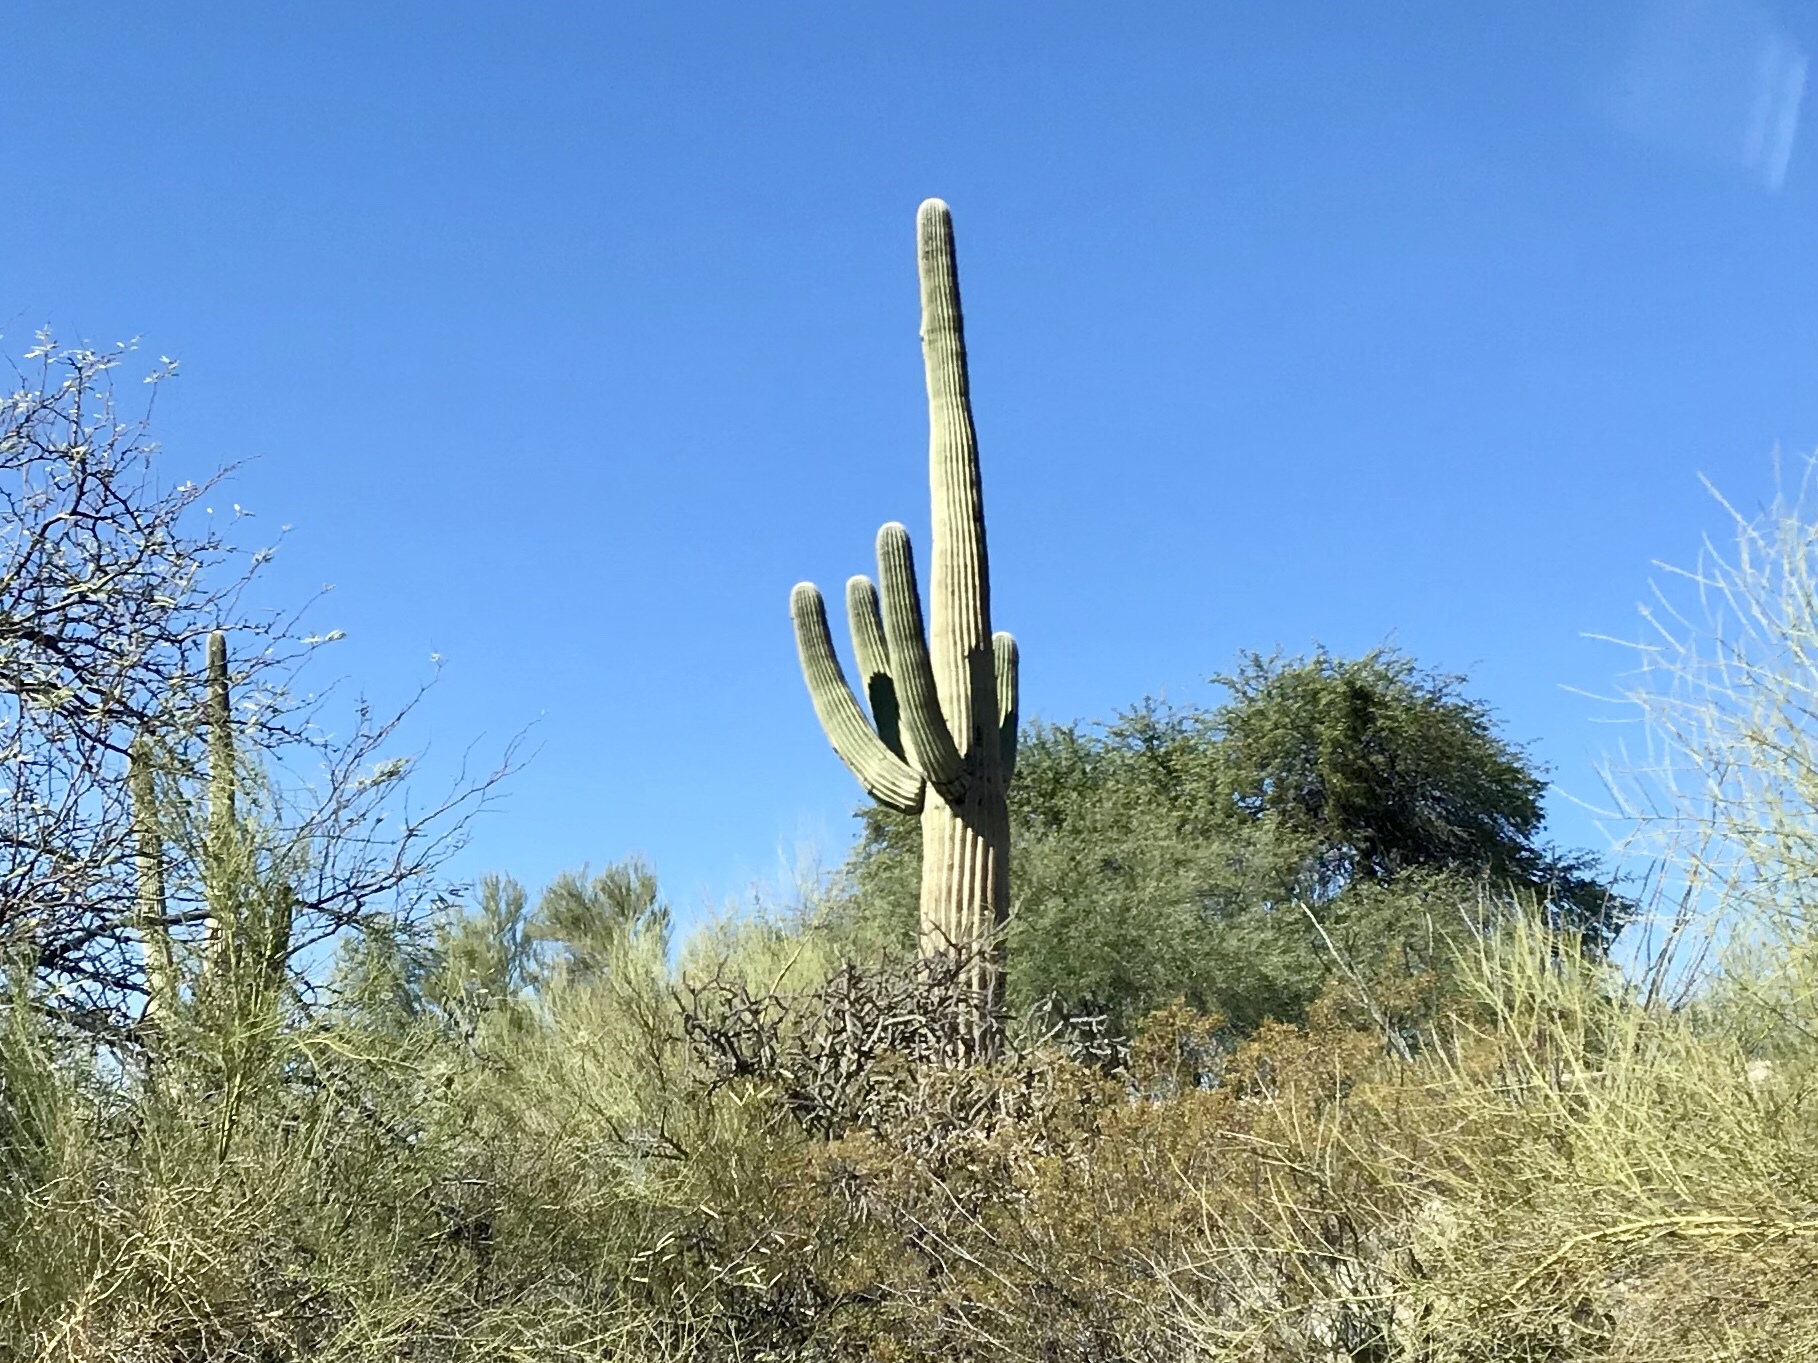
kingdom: Plantae
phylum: Tracheophyta
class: Magnoliopsida
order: Caryophyllales
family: Cactaceae
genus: Carnegiea
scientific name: Carnegiea gigantea
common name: Saguaro
